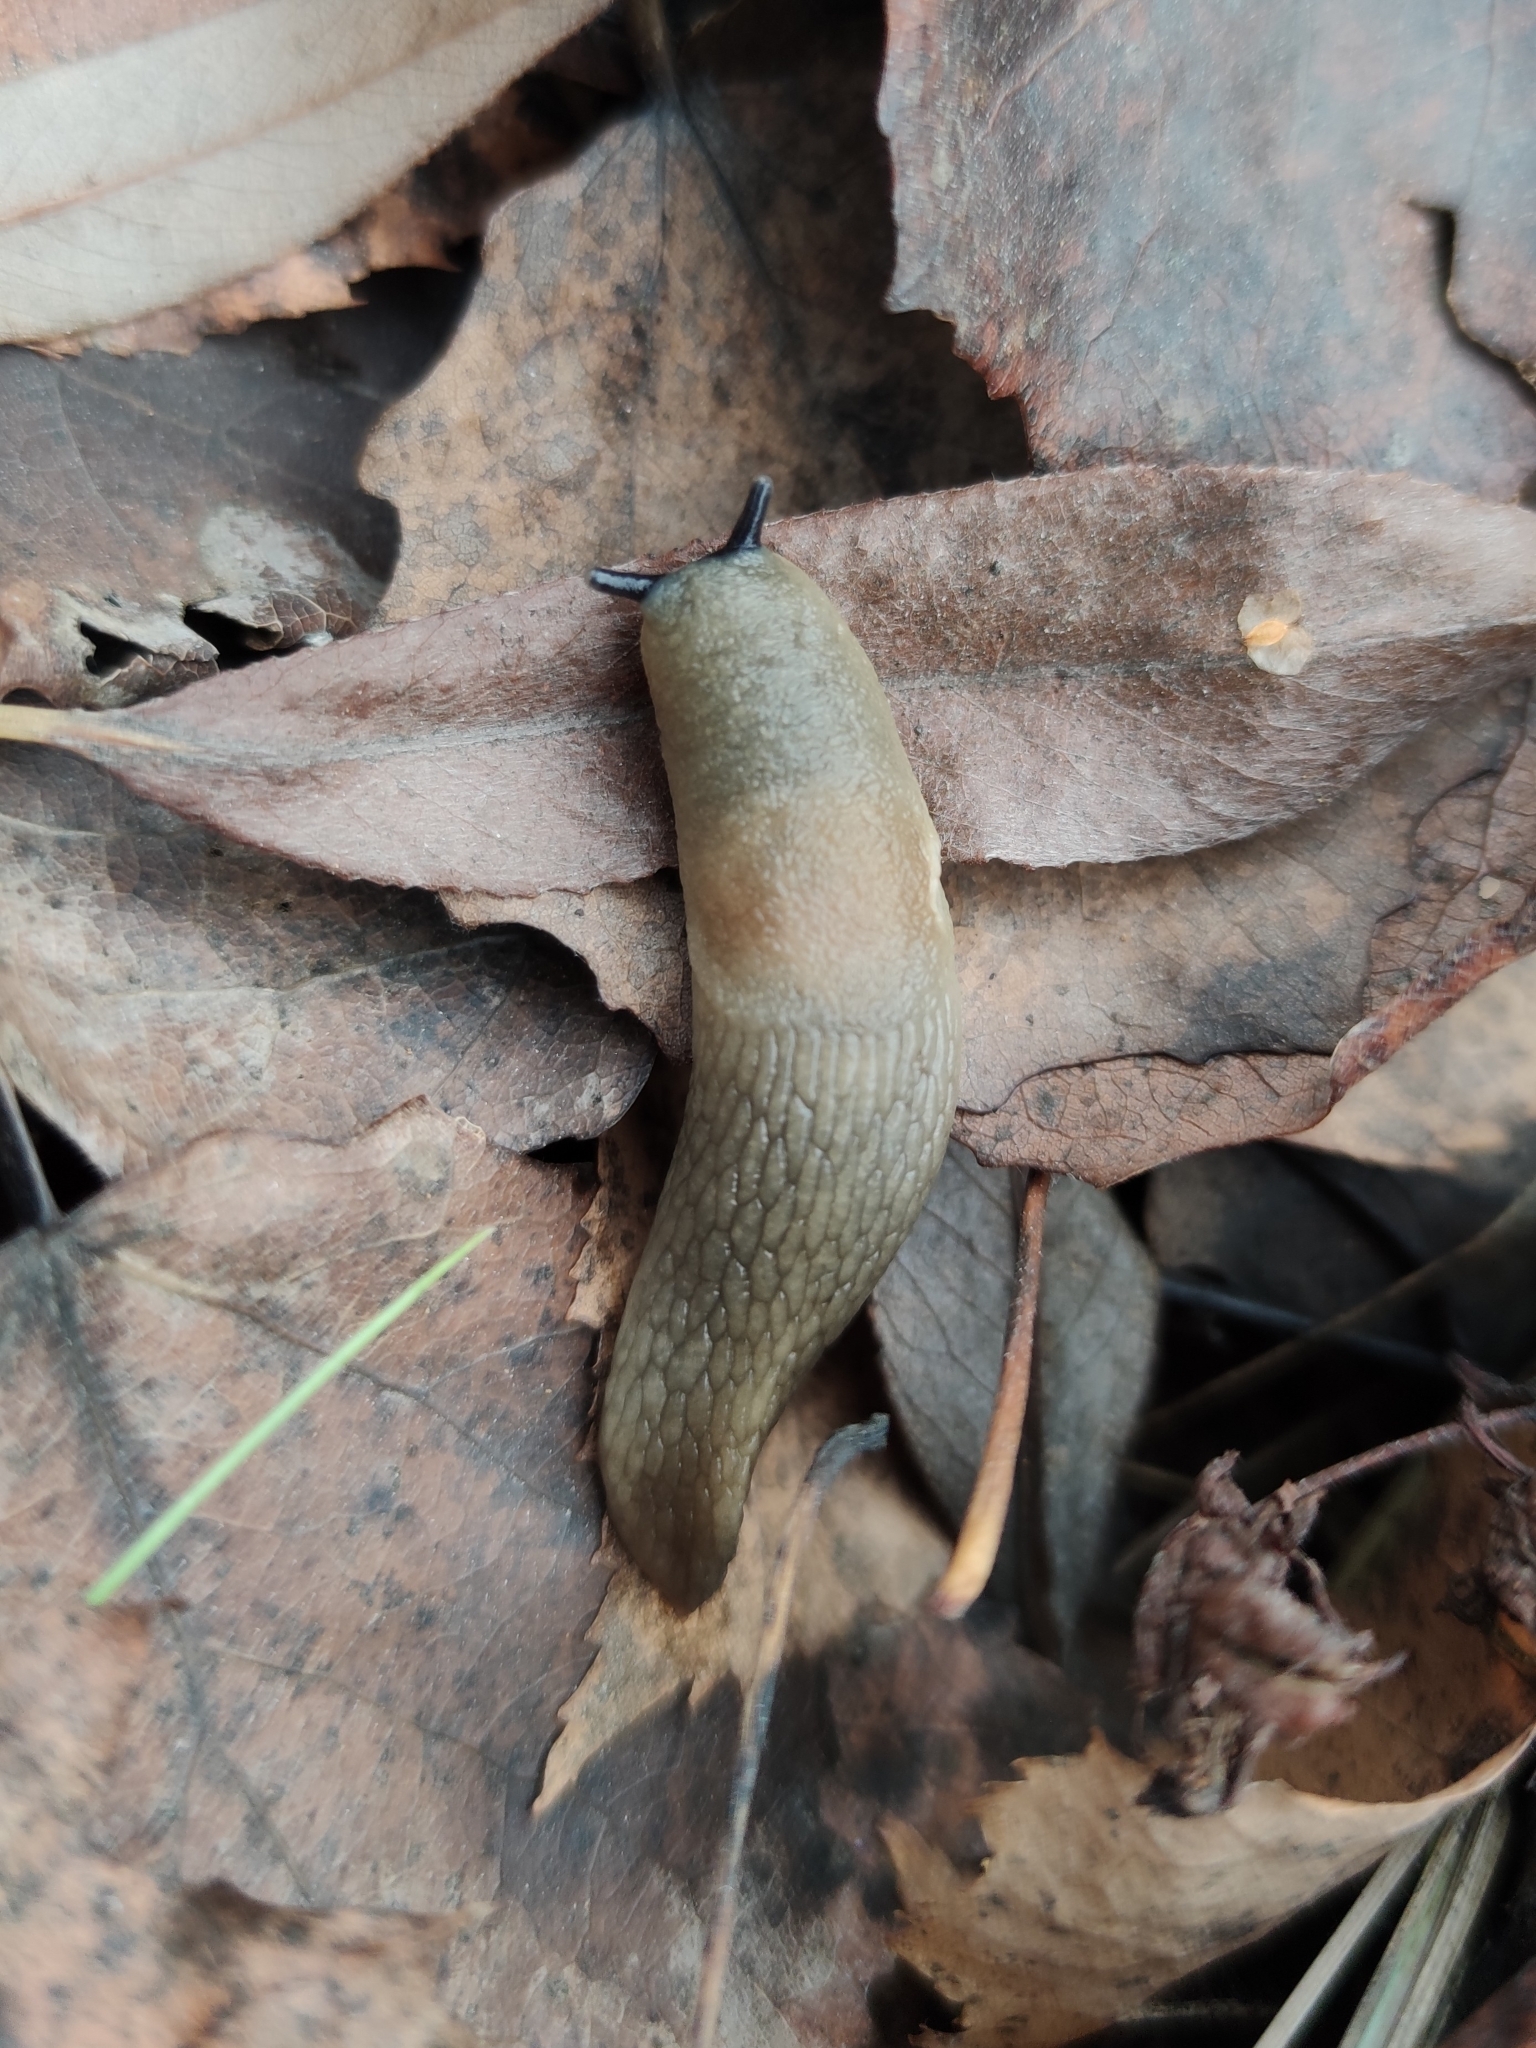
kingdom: Animalia
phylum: Mollusca
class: Gastropoda
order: Stylommatophora
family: Agriolimacidae
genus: Krynickillus
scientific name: Krynickillus melanocephalus
